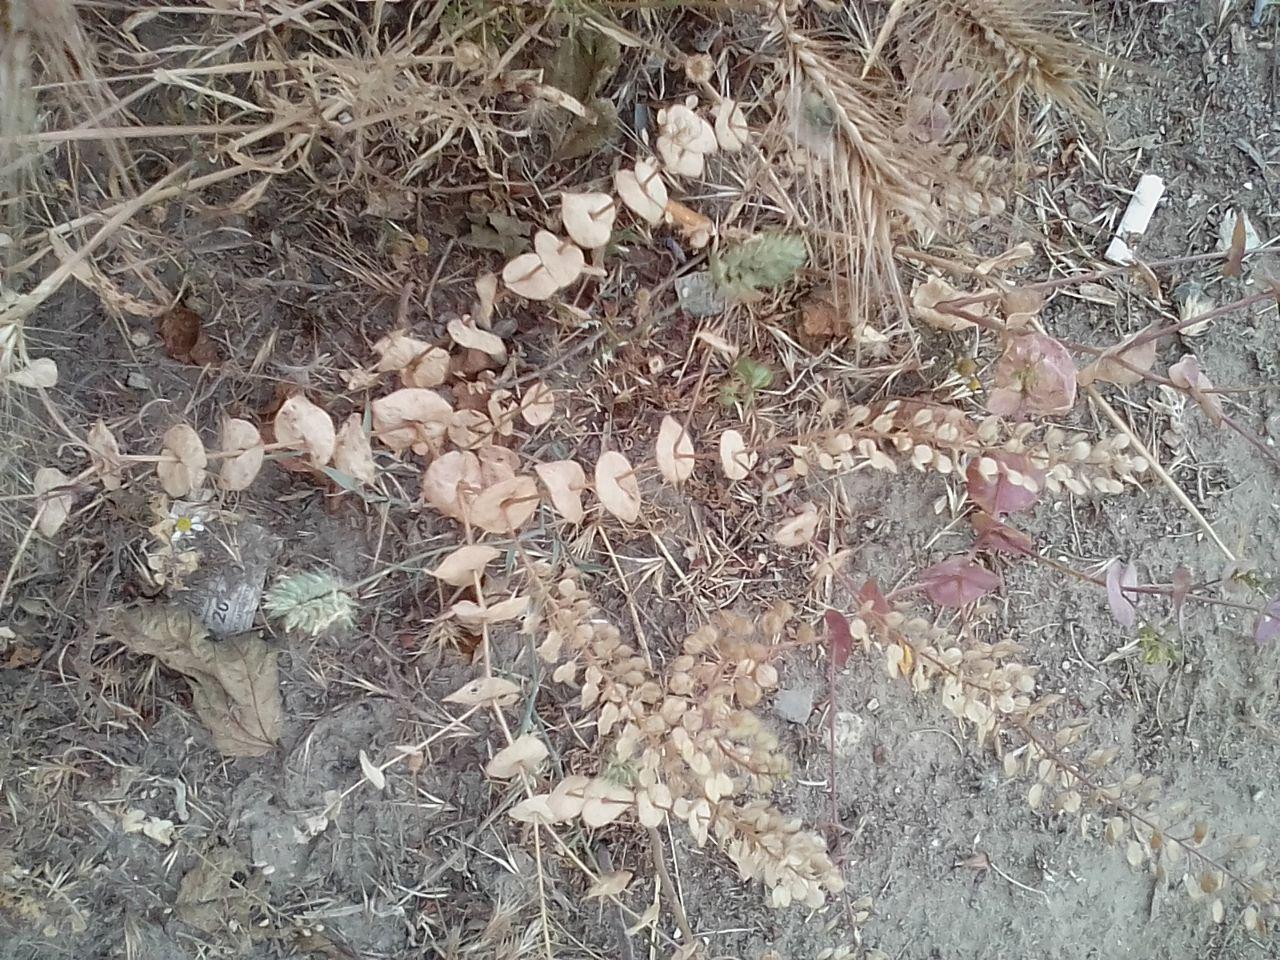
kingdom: Plantae
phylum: Tracheophyta
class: Magnoliopsida
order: Brassicales
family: Brassicaceae
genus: Lepidium
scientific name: Lepidium perfoliatum
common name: Perfoliate pepperwort
